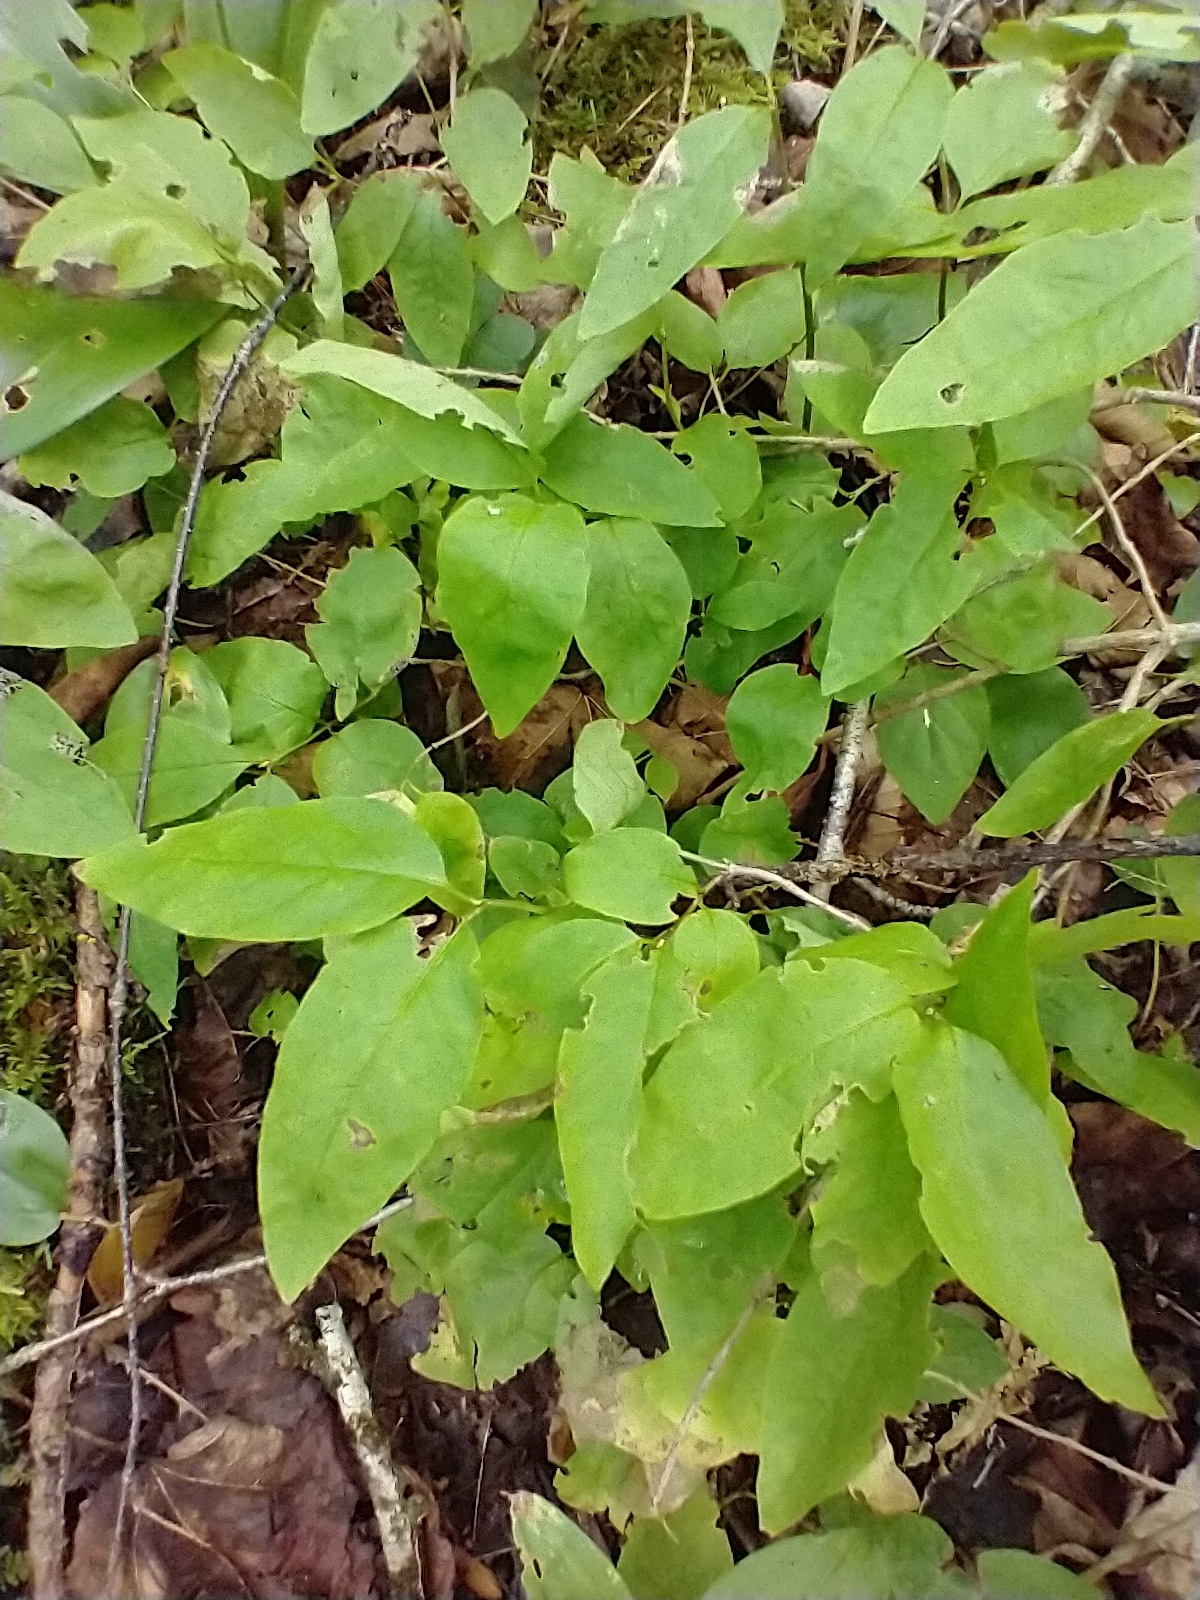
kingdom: Plantae
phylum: Tracheophyta
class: Magnoliopsida
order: Dipsacales
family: Caprifoliaceae
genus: Lonicera
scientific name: Lonicera canadensis
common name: American fly-honeysuckle
